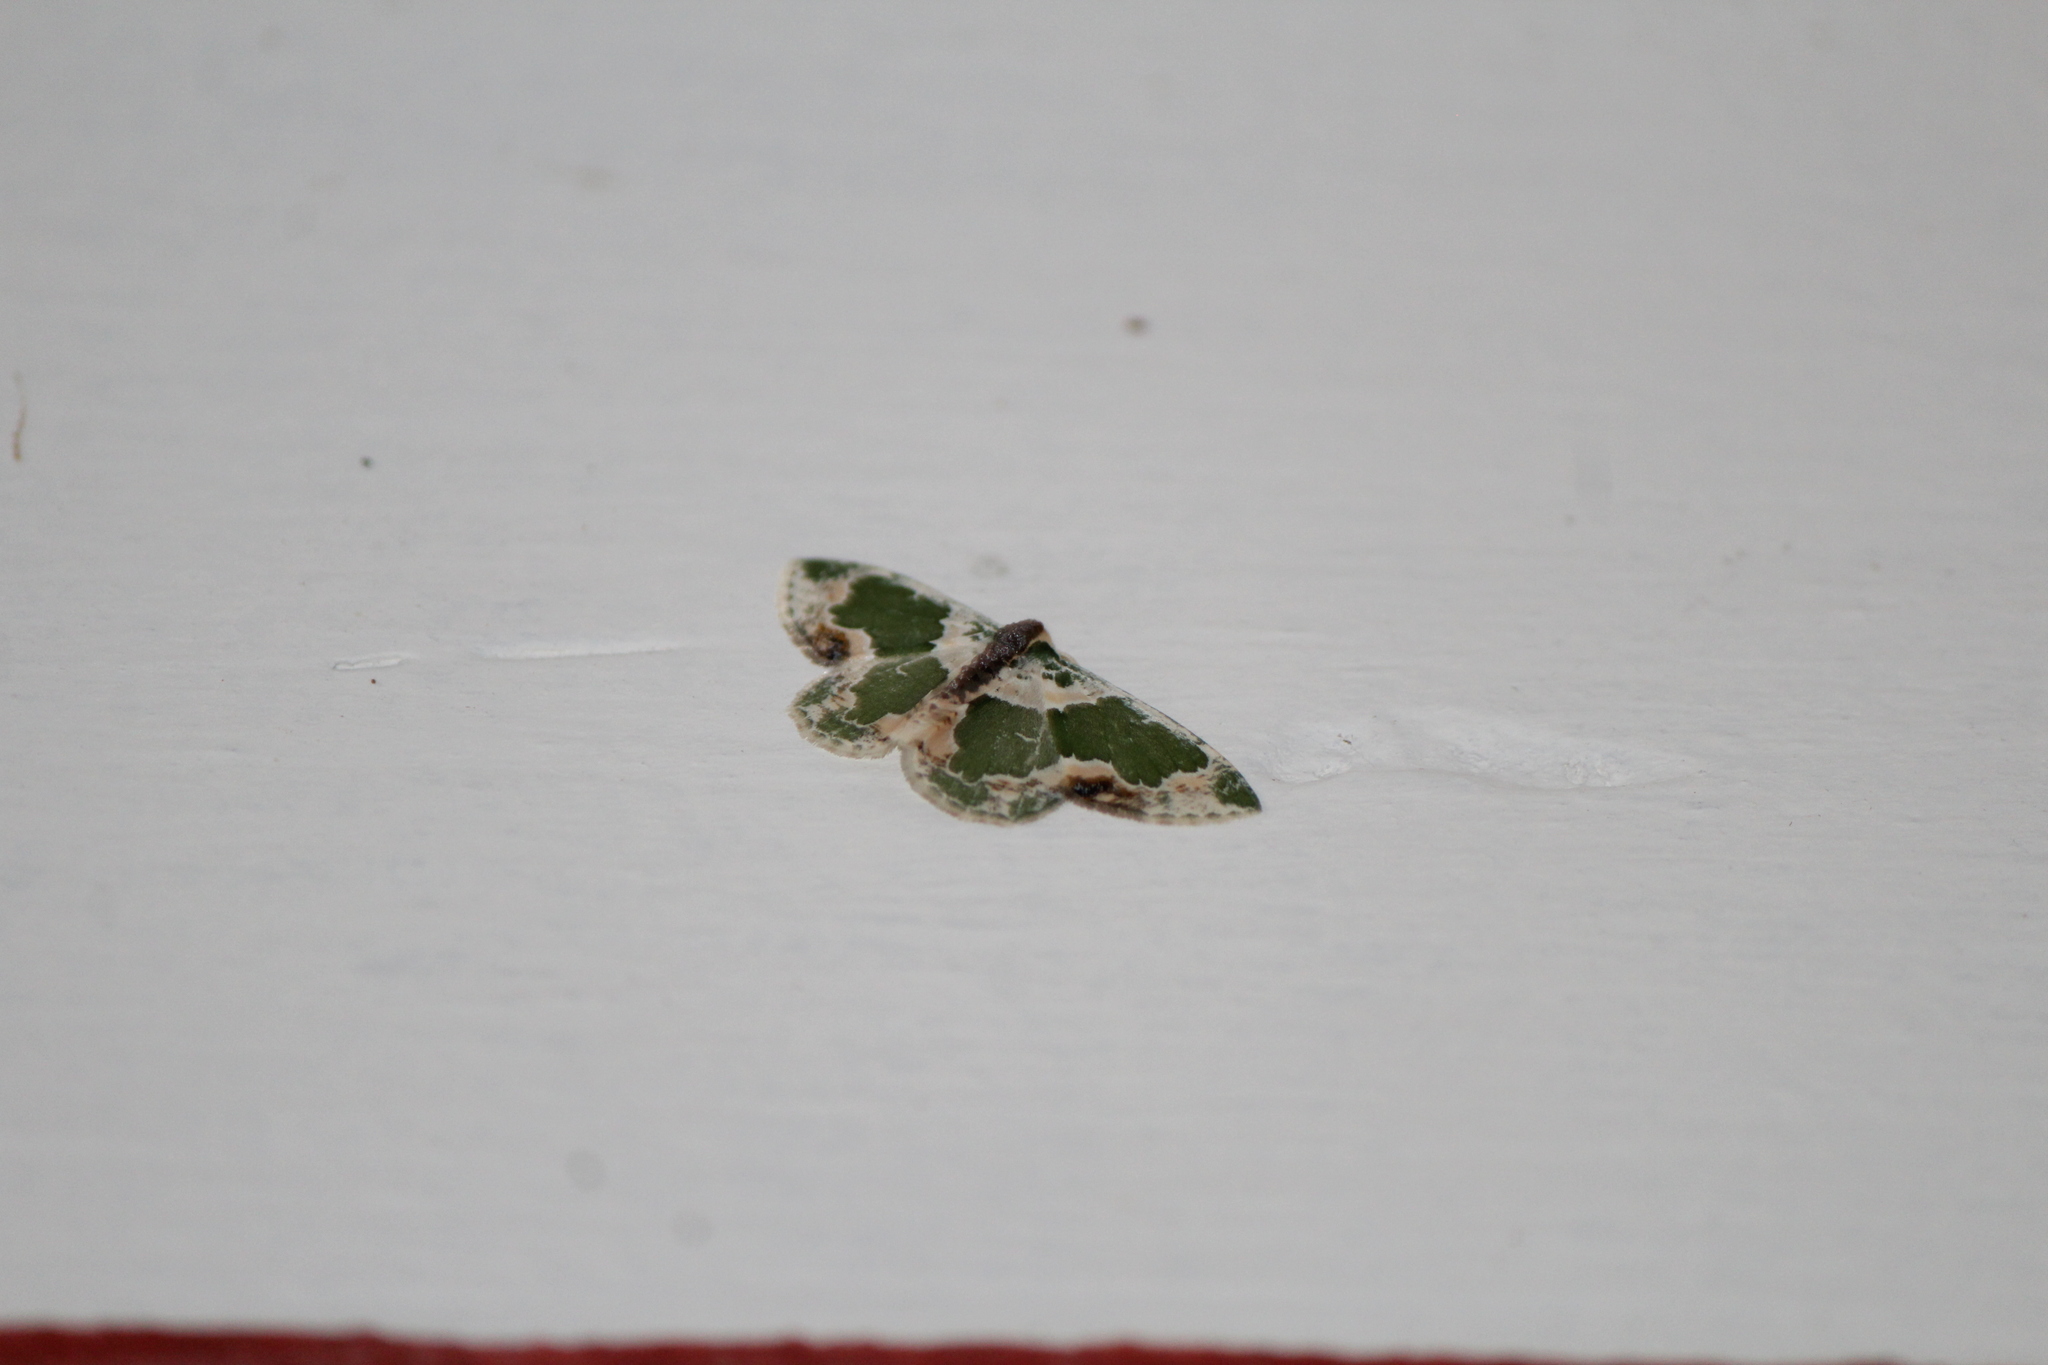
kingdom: Animalia
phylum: Arthropoda
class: Insecta
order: Lepidoptera
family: Geometridae
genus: Lophochorista
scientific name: Lophochorista calliope
